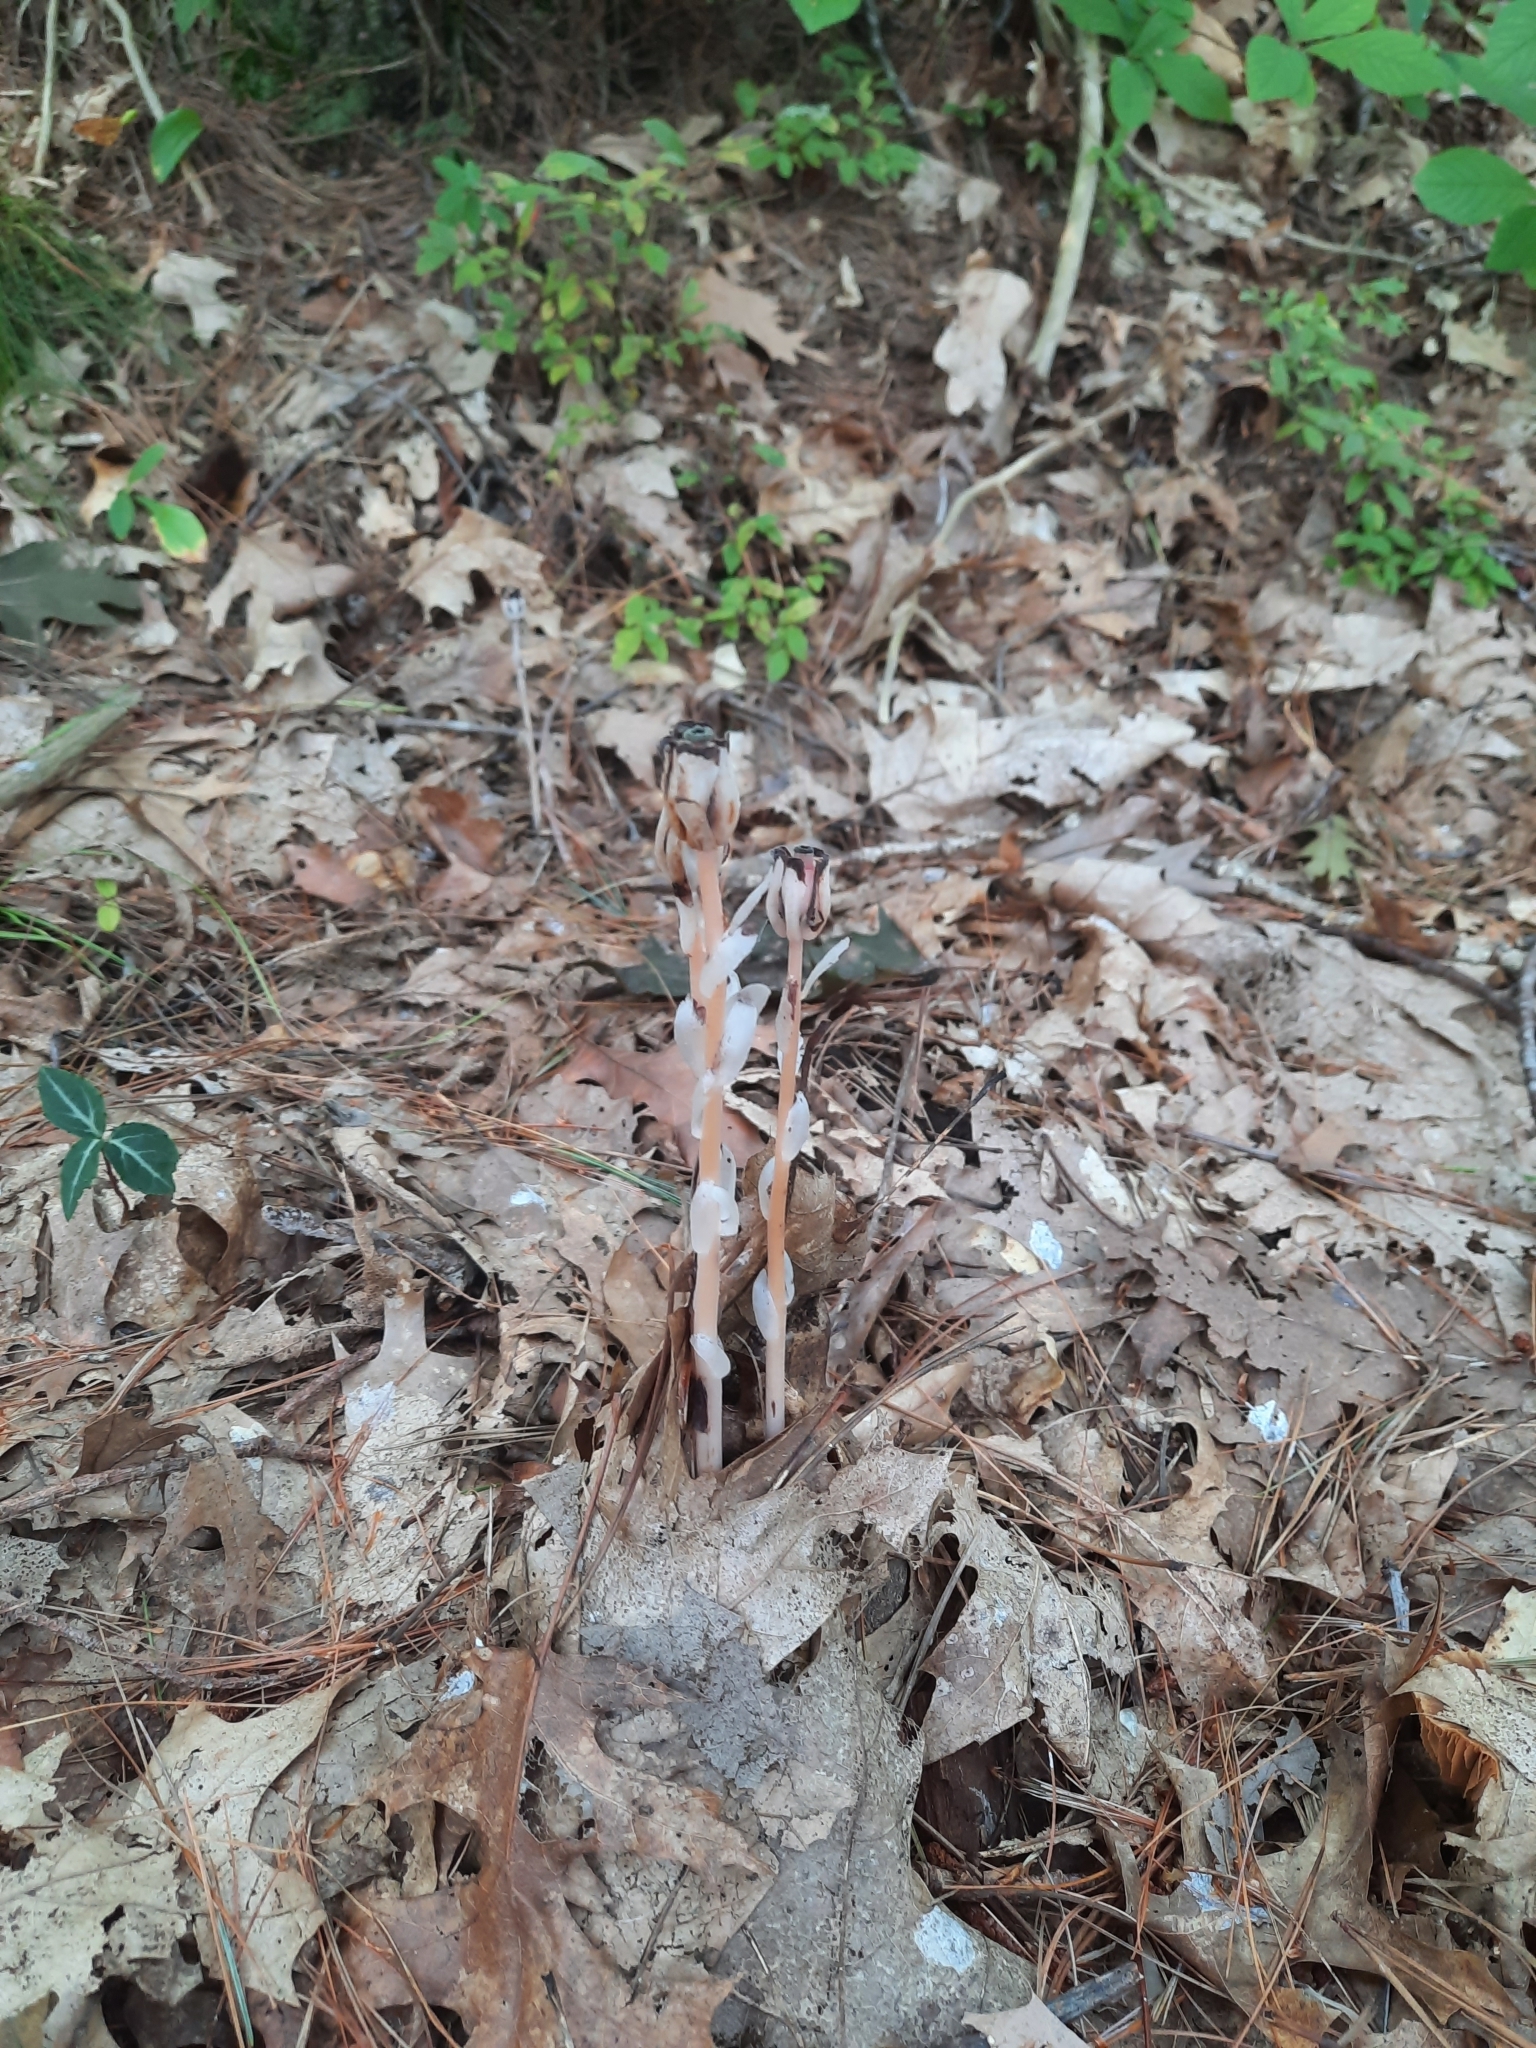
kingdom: Plantae
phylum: Tracheophyta
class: Magnoliopsida
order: Ericales
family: Ericaceae
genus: Monotropa
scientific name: Monotropa uniflora
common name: Convulsion root
